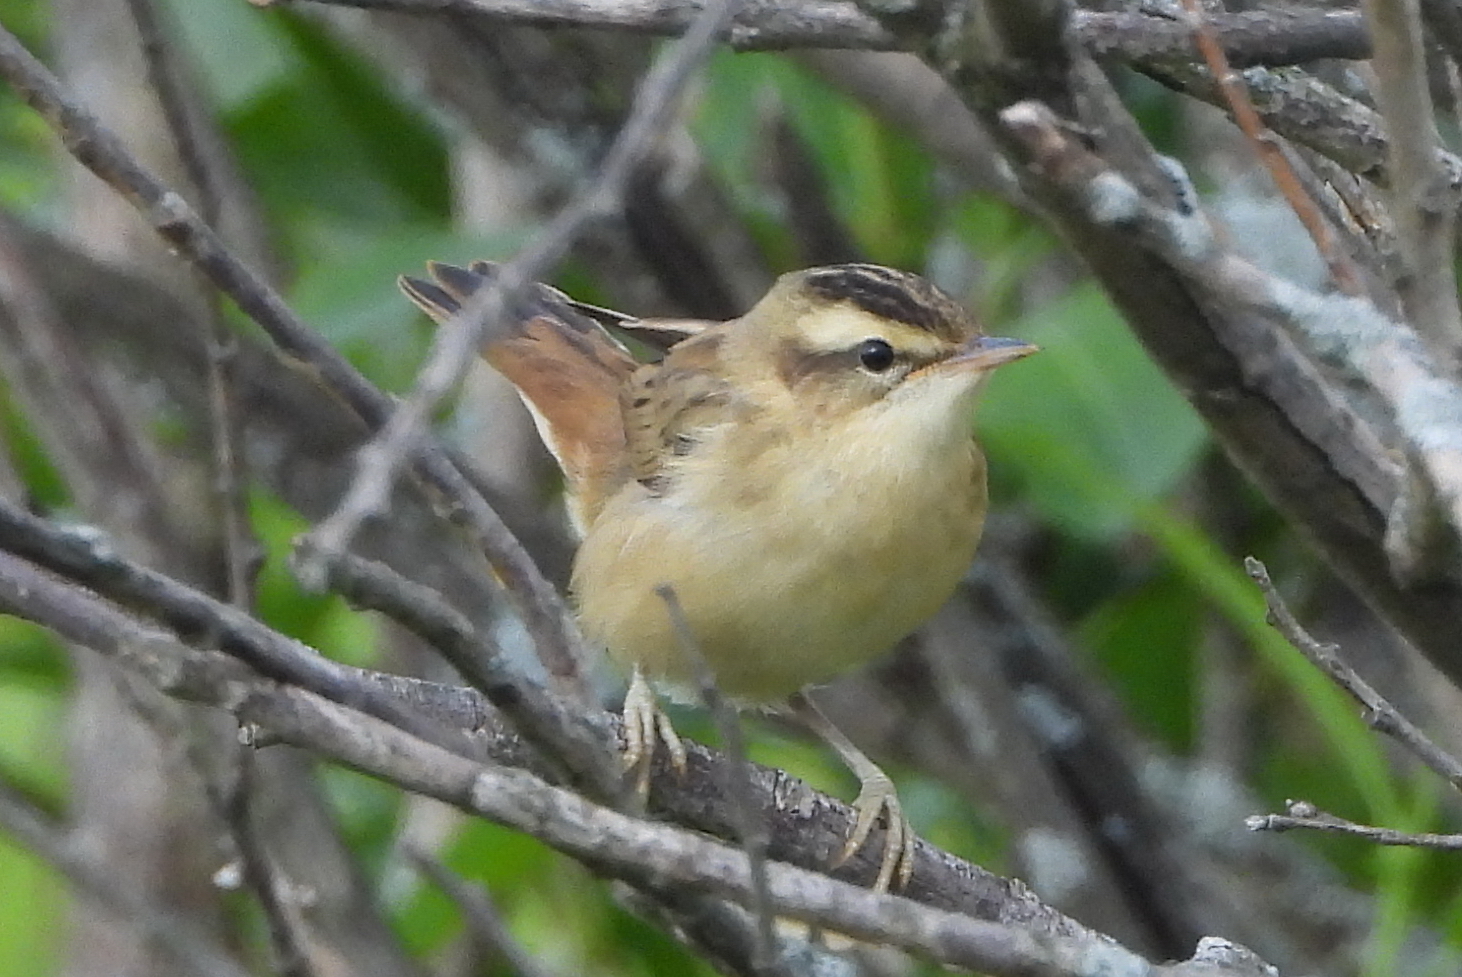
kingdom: Animalia
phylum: Chordata
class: Aves
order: Passeriformes
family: Acrocephalidae
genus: Acrocephalus
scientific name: Acrocephalus schoenobaenus
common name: Sedge warbler
